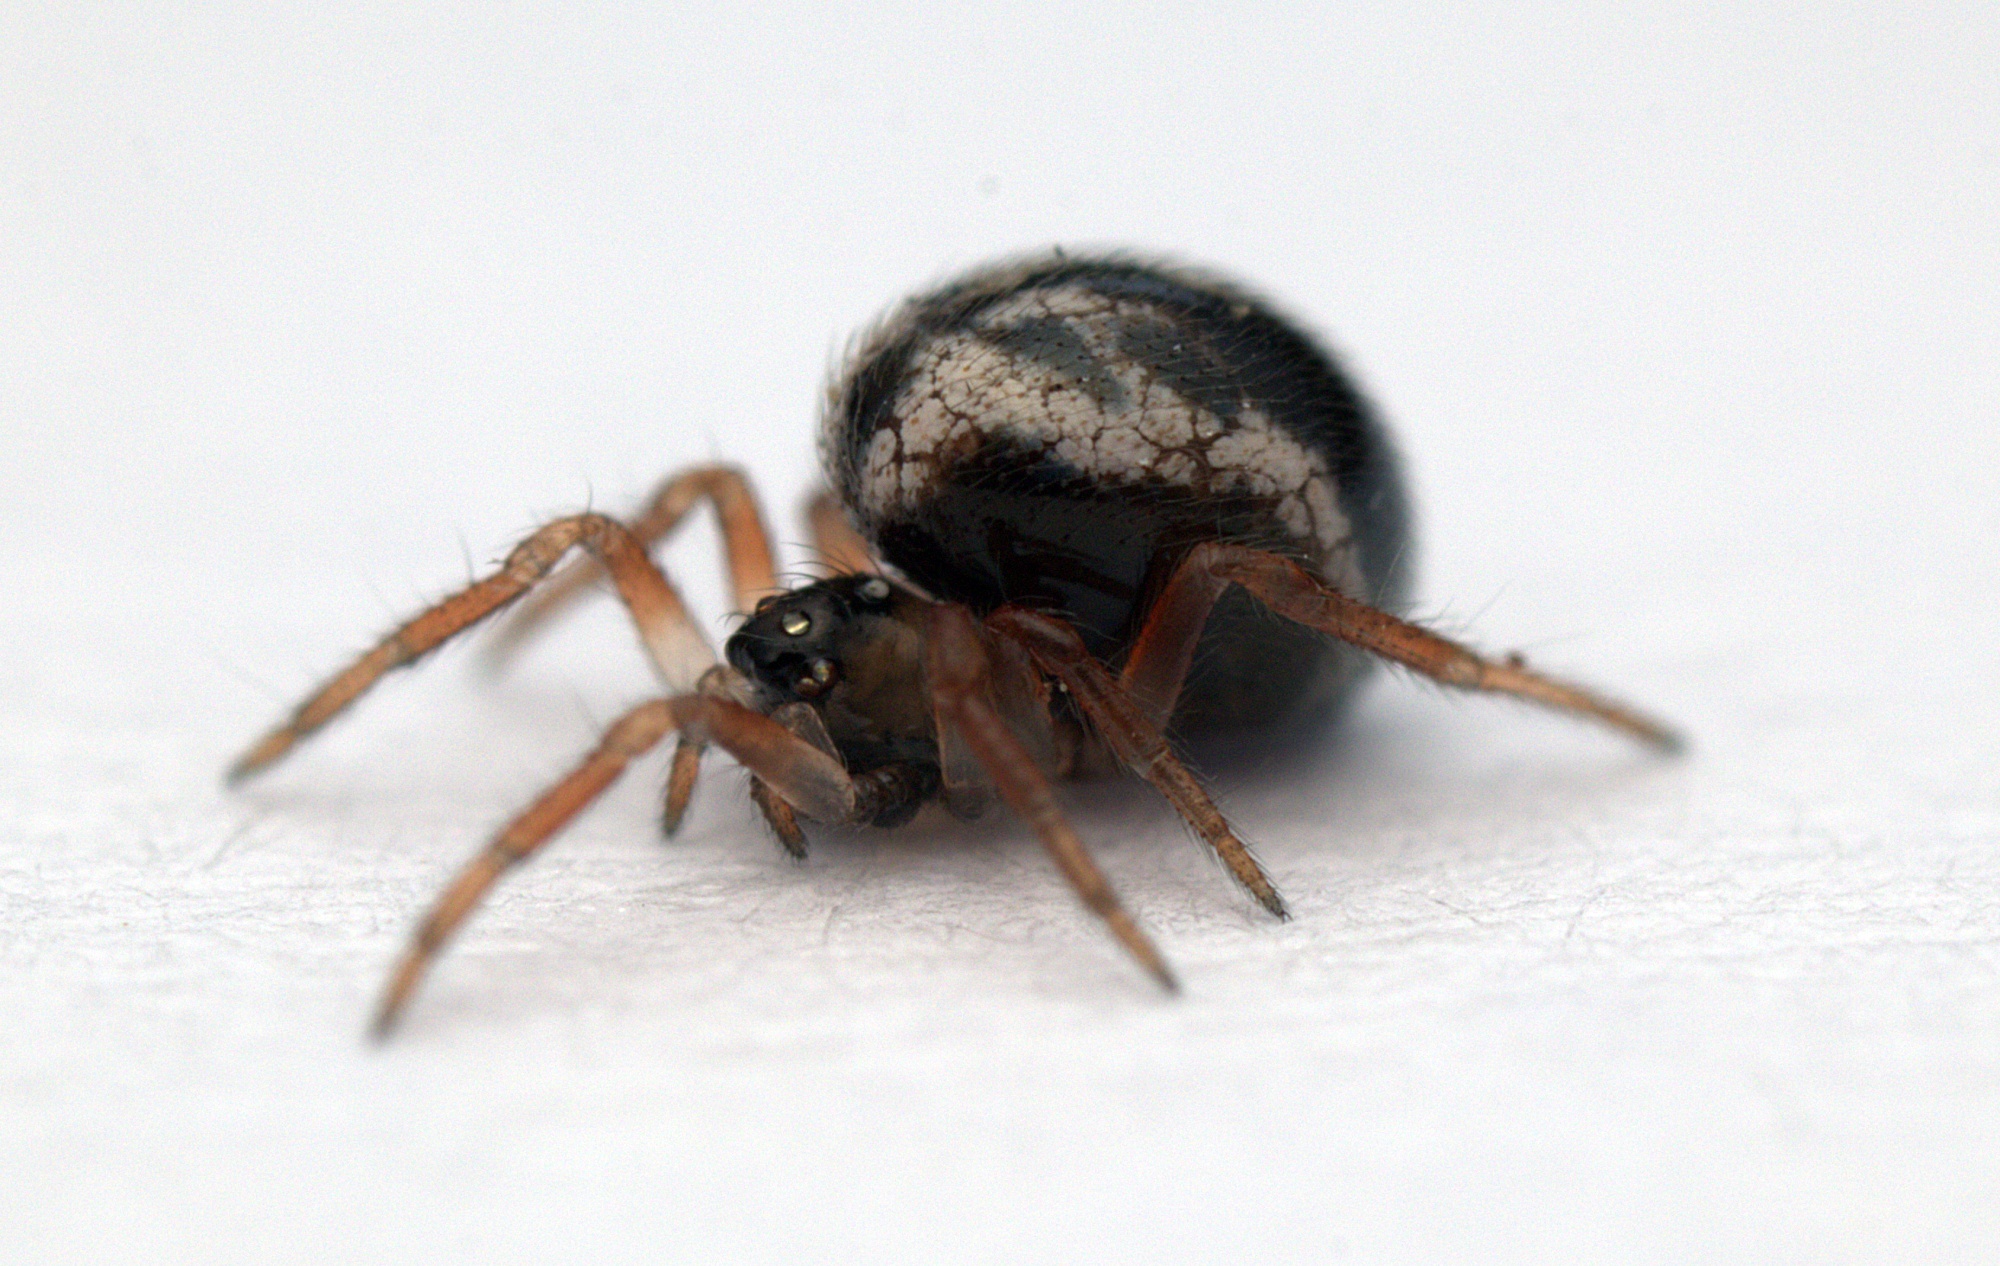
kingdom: Animalia
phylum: Arthropoda
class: Arachnida
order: Araneae
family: Theridiidae
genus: Phycosoma
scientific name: Phycosoma oecobioides
